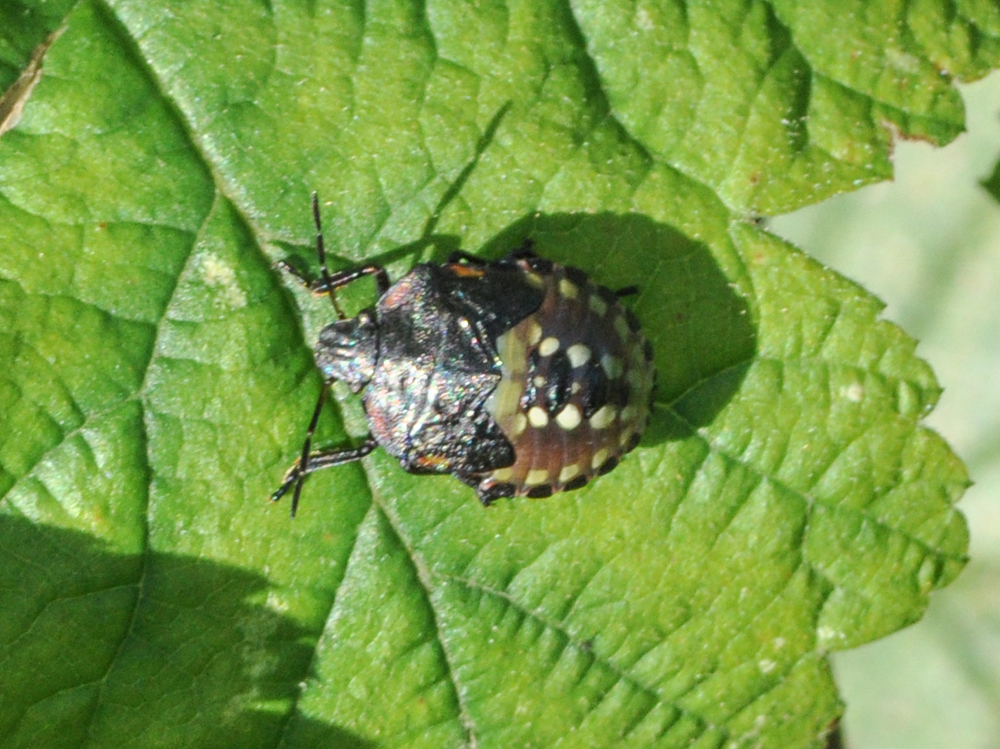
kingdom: Animalia
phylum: Arthropoda
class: Insecta
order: Hemiptera
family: Pentatomidae
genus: Nezara
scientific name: Nezara viridula
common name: Southern green stink bug
